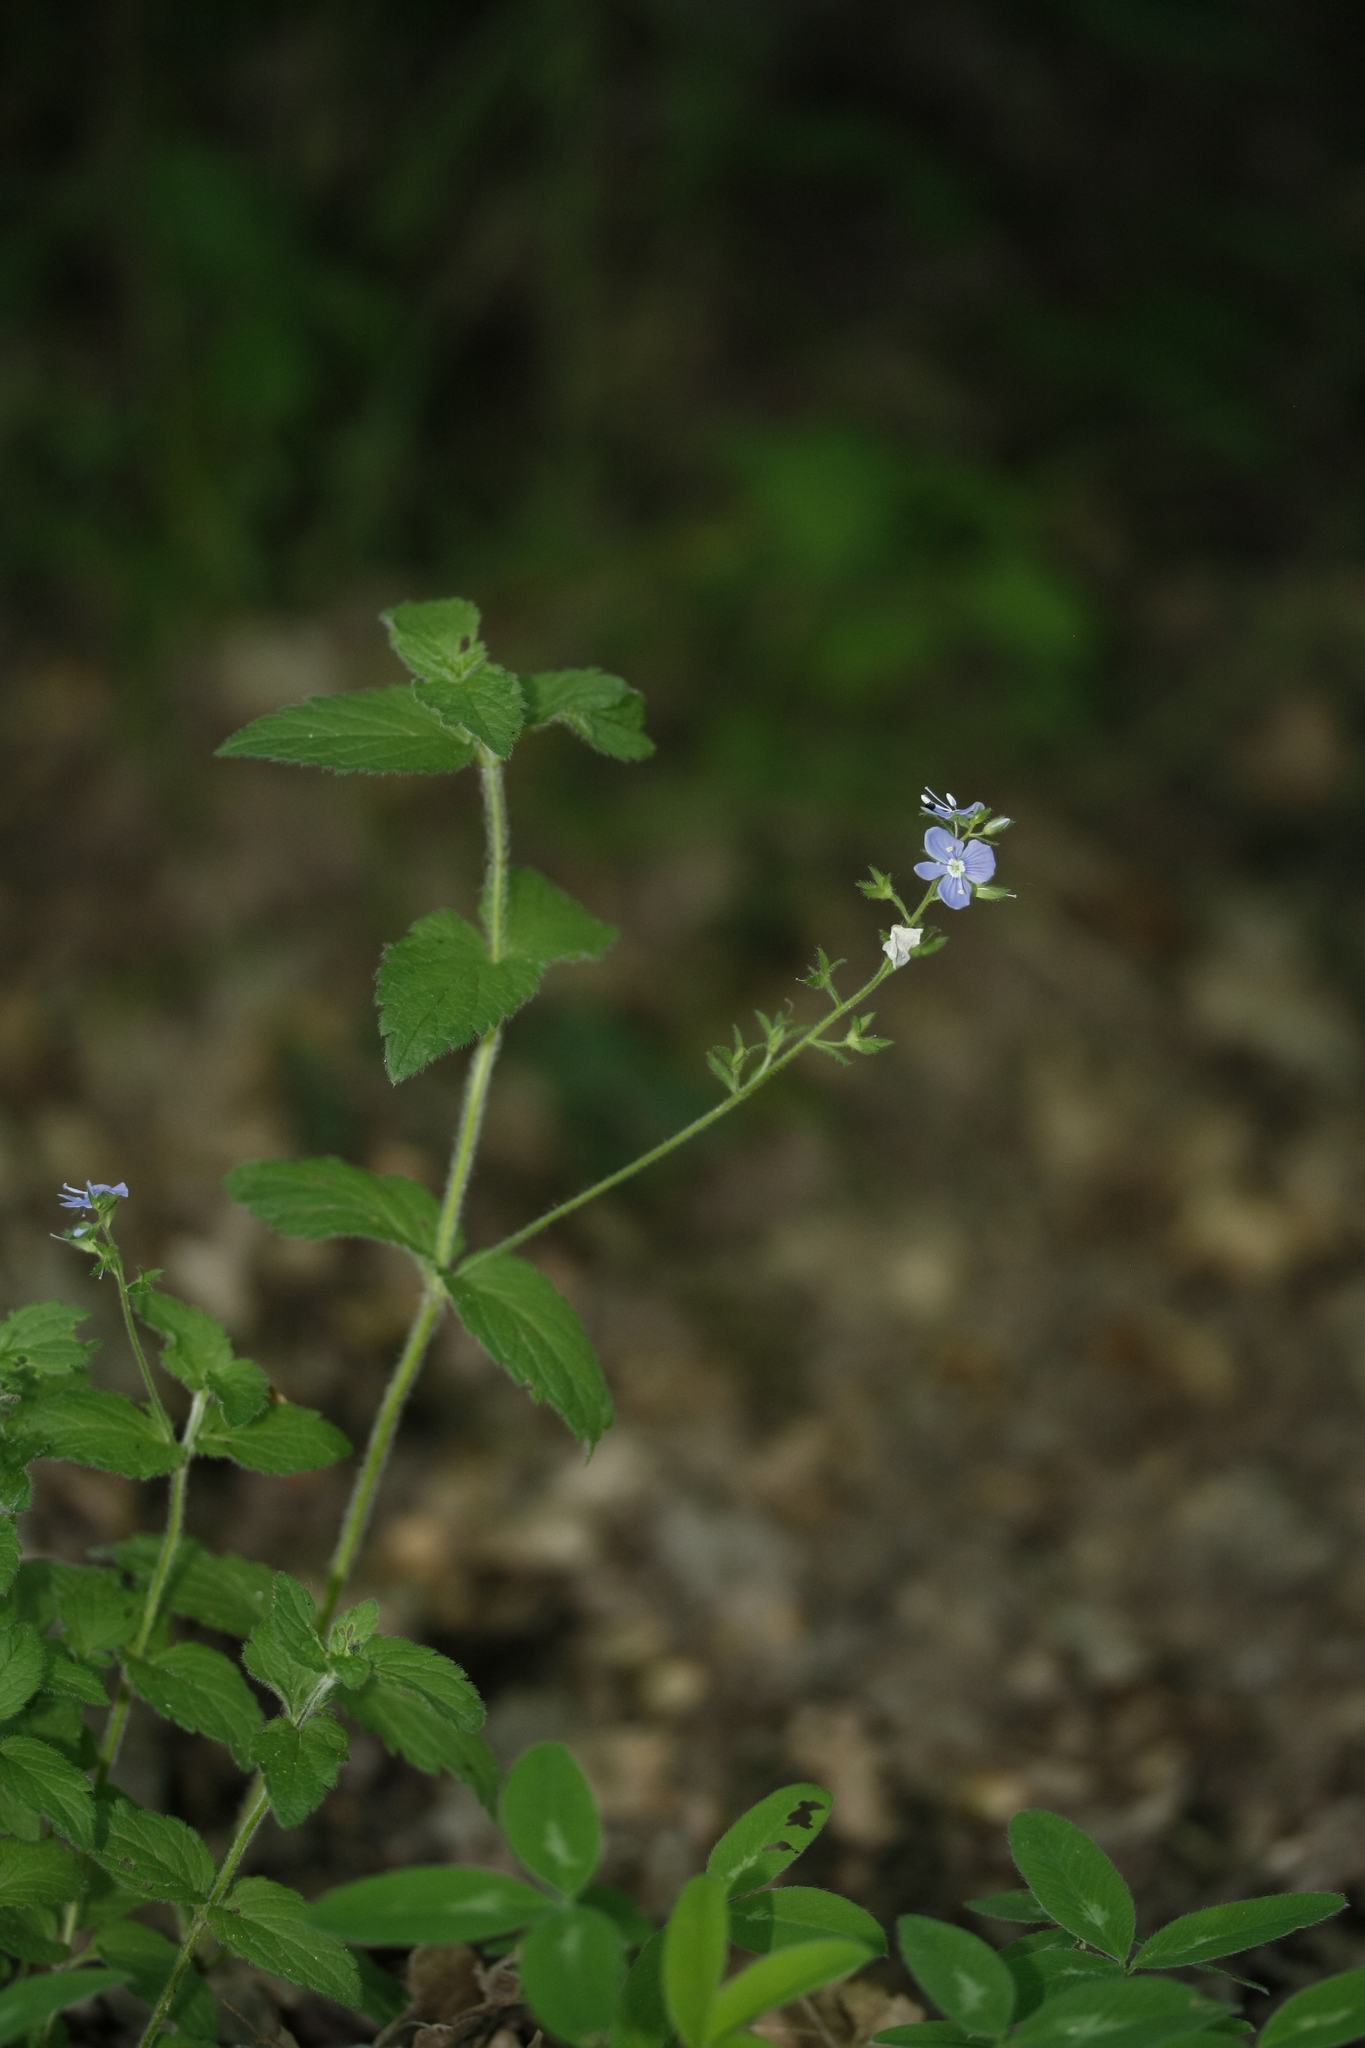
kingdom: Plantae
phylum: Tracheophyta
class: Magnoliopsida
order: Lamiales
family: Plantaginaceae
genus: Veronica
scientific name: Veronica chamaedrys
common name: Germander speedwell
